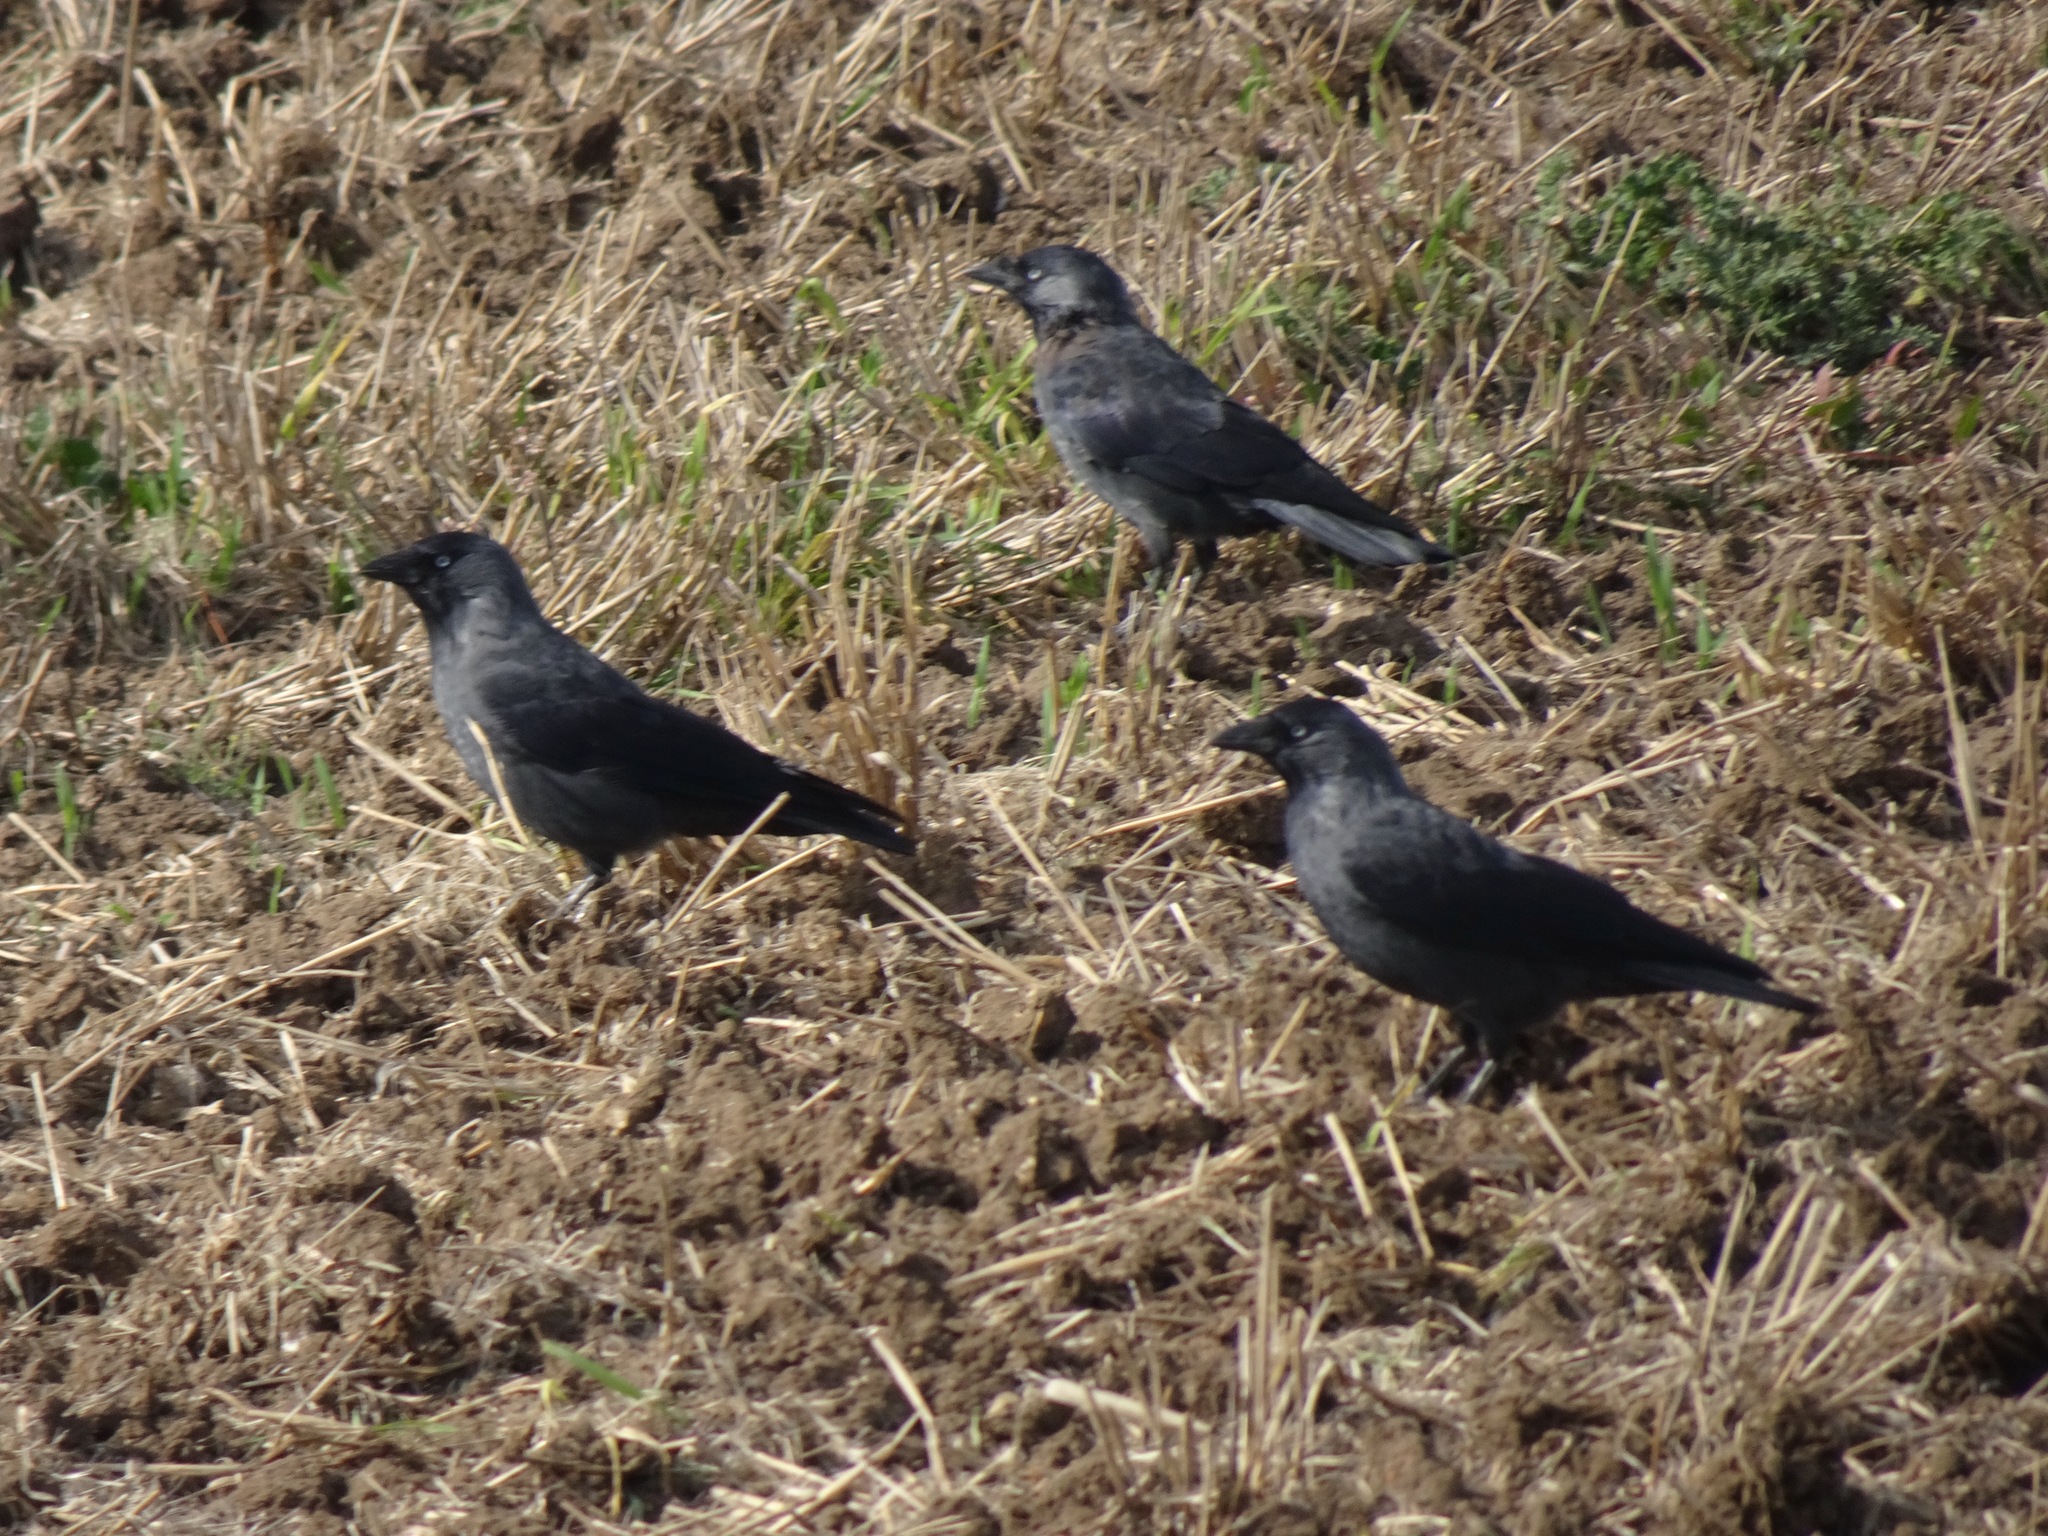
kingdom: Animalia
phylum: Chordata
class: Aves
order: Passeriformes
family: Corvidae
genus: Coloeus
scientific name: Coloeus monedula
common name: Western jackdaw
